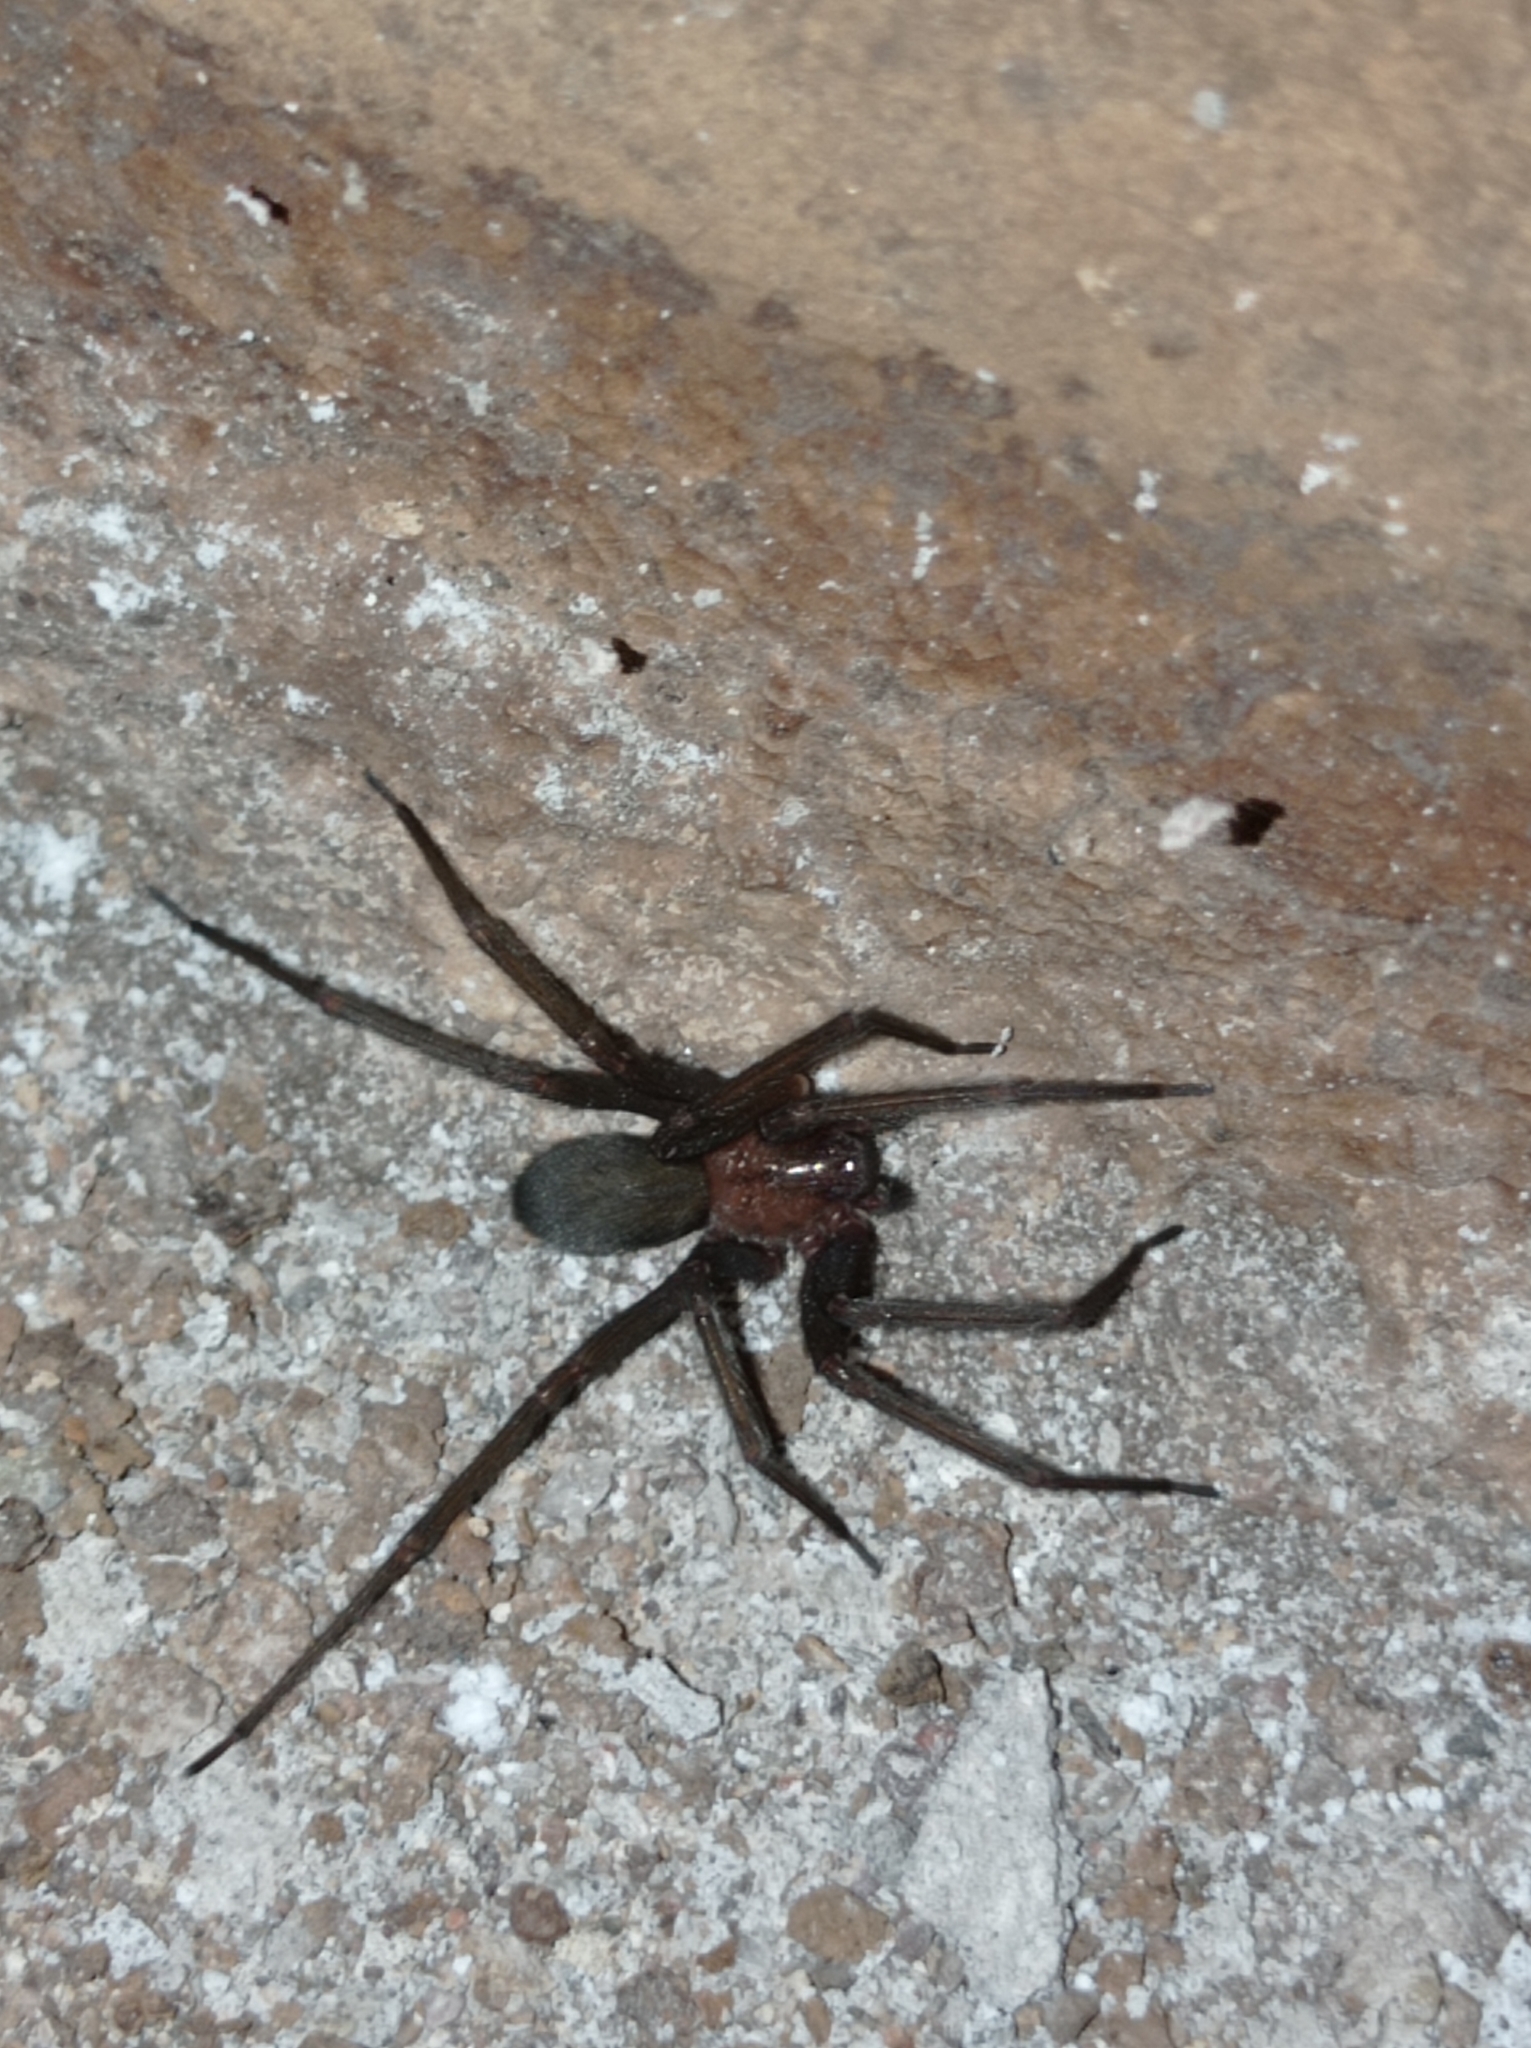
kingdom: Animalia
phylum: Arthropoda
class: Arachnida
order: Araneae
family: Sicariidae
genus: Loxosceles
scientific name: Loxosceles laeta
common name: Chilean recluse spider
